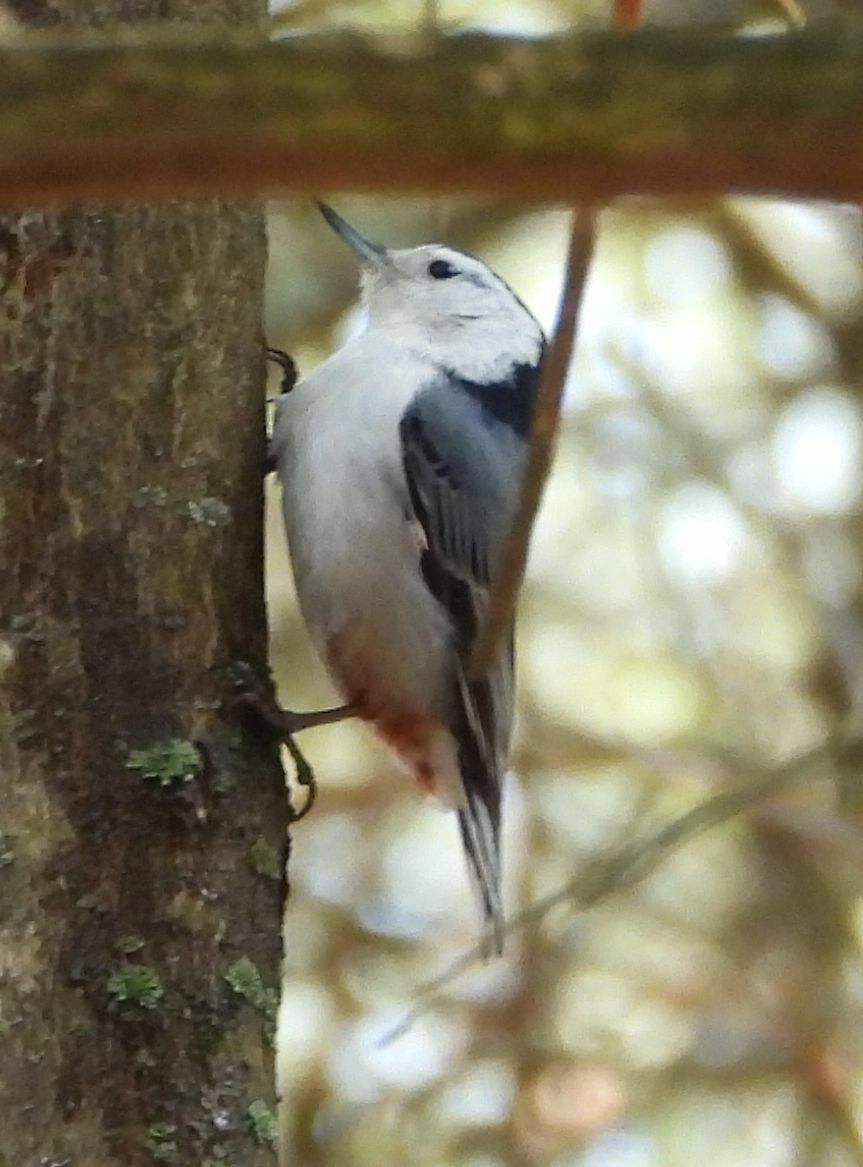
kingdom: Animalia
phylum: Chordata
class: Aves
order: Passeriformes
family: Sittidae
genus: Sitta
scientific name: Sitta carolinensis
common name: White-breasted nuthatch
